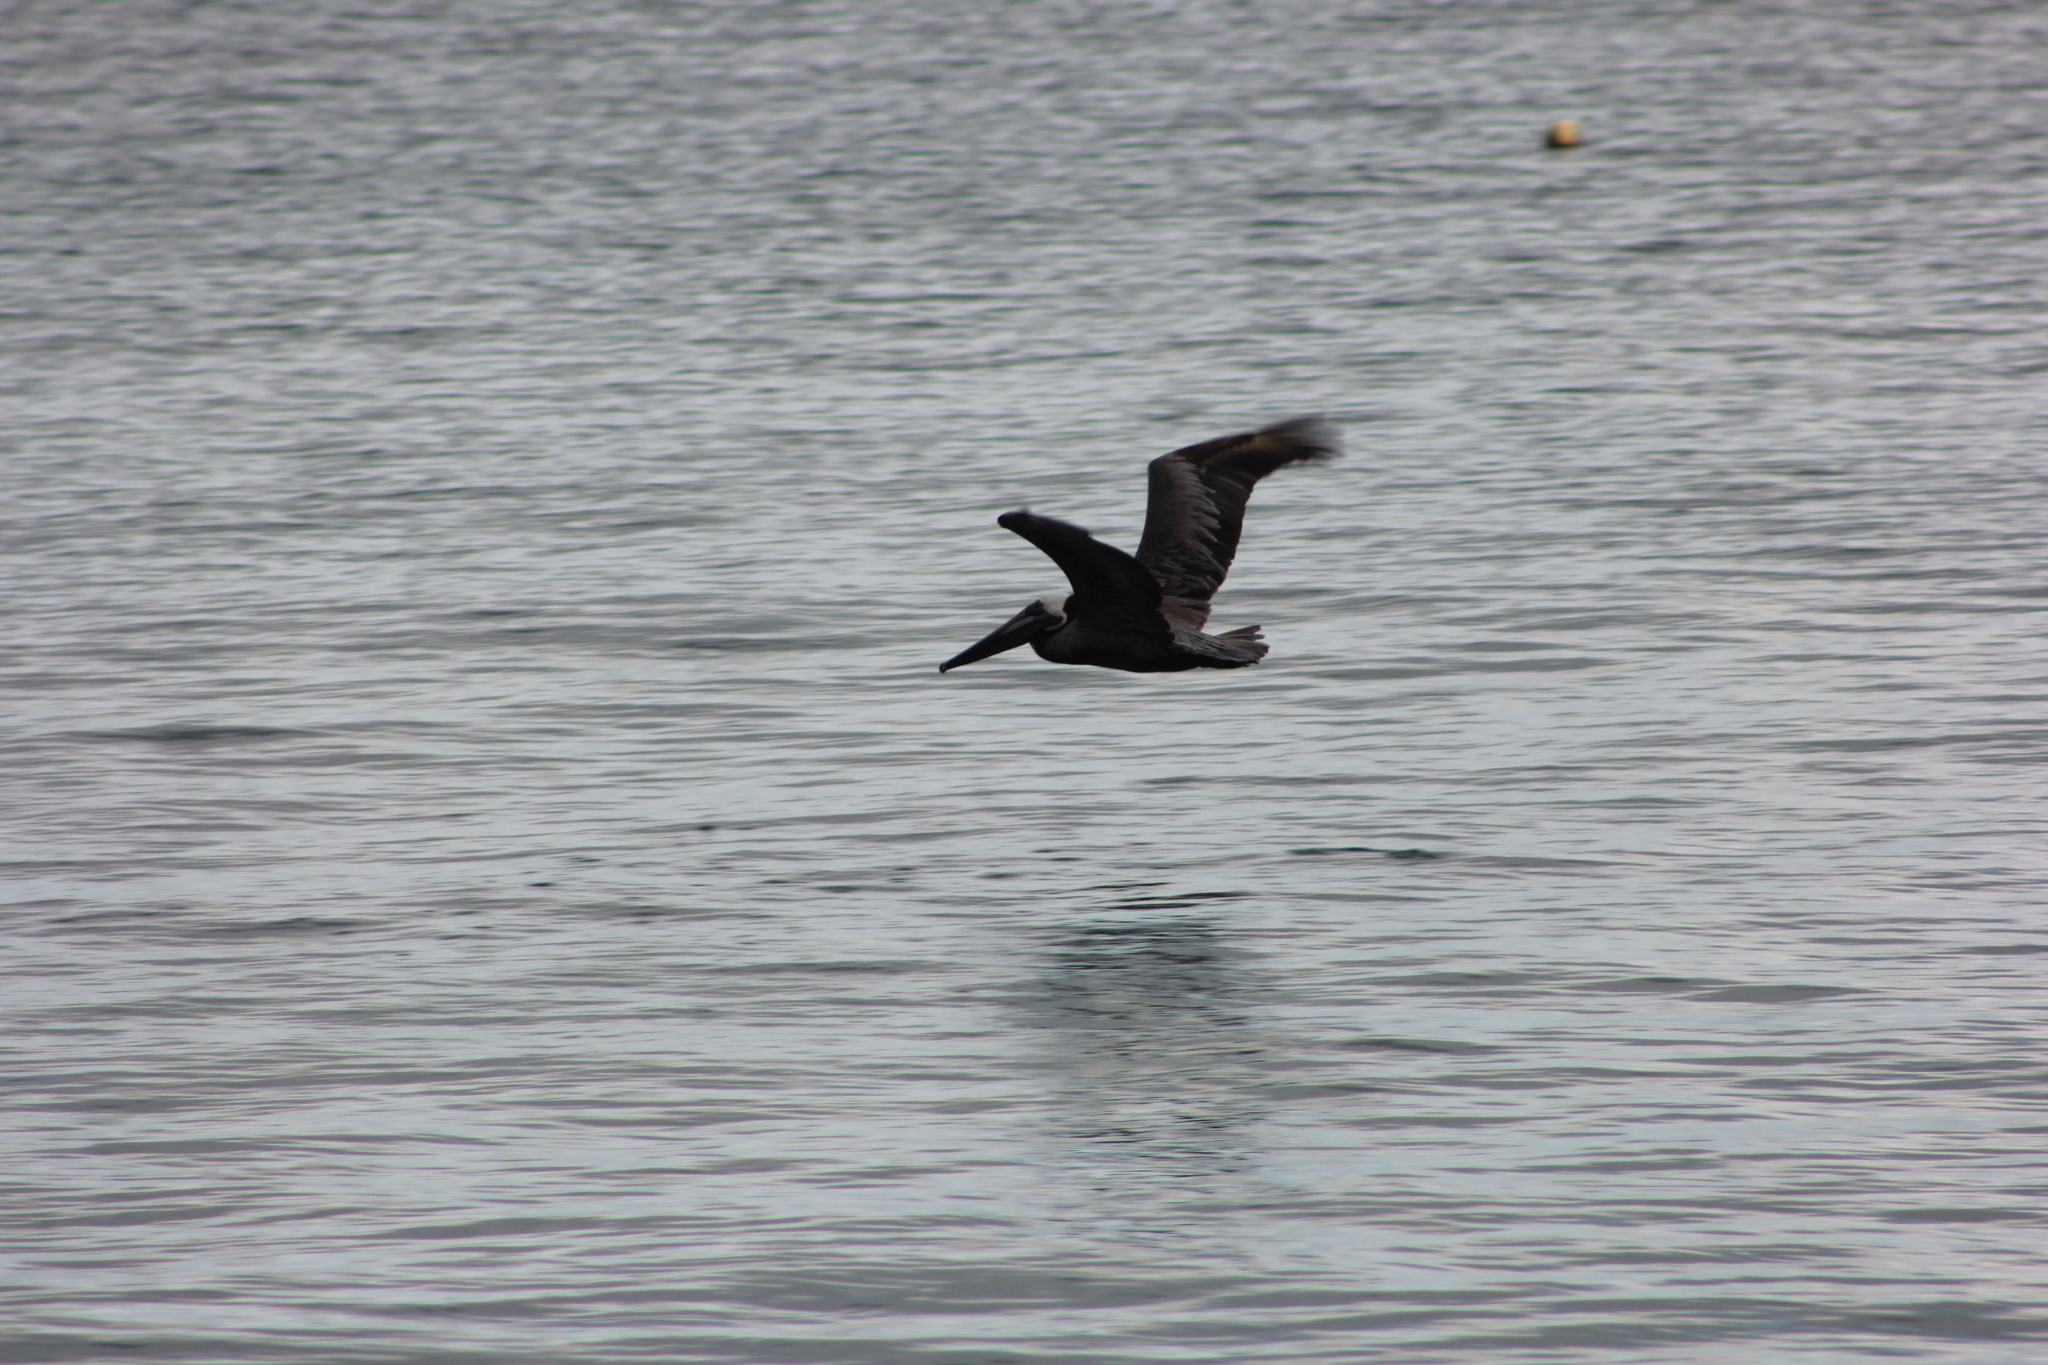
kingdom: Animalia
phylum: Chordata
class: Aves
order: Pelecaniformes
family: Pelecanidae
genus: Pelecanus
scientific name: Pelecanus occidentalis
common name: Brown pelican
